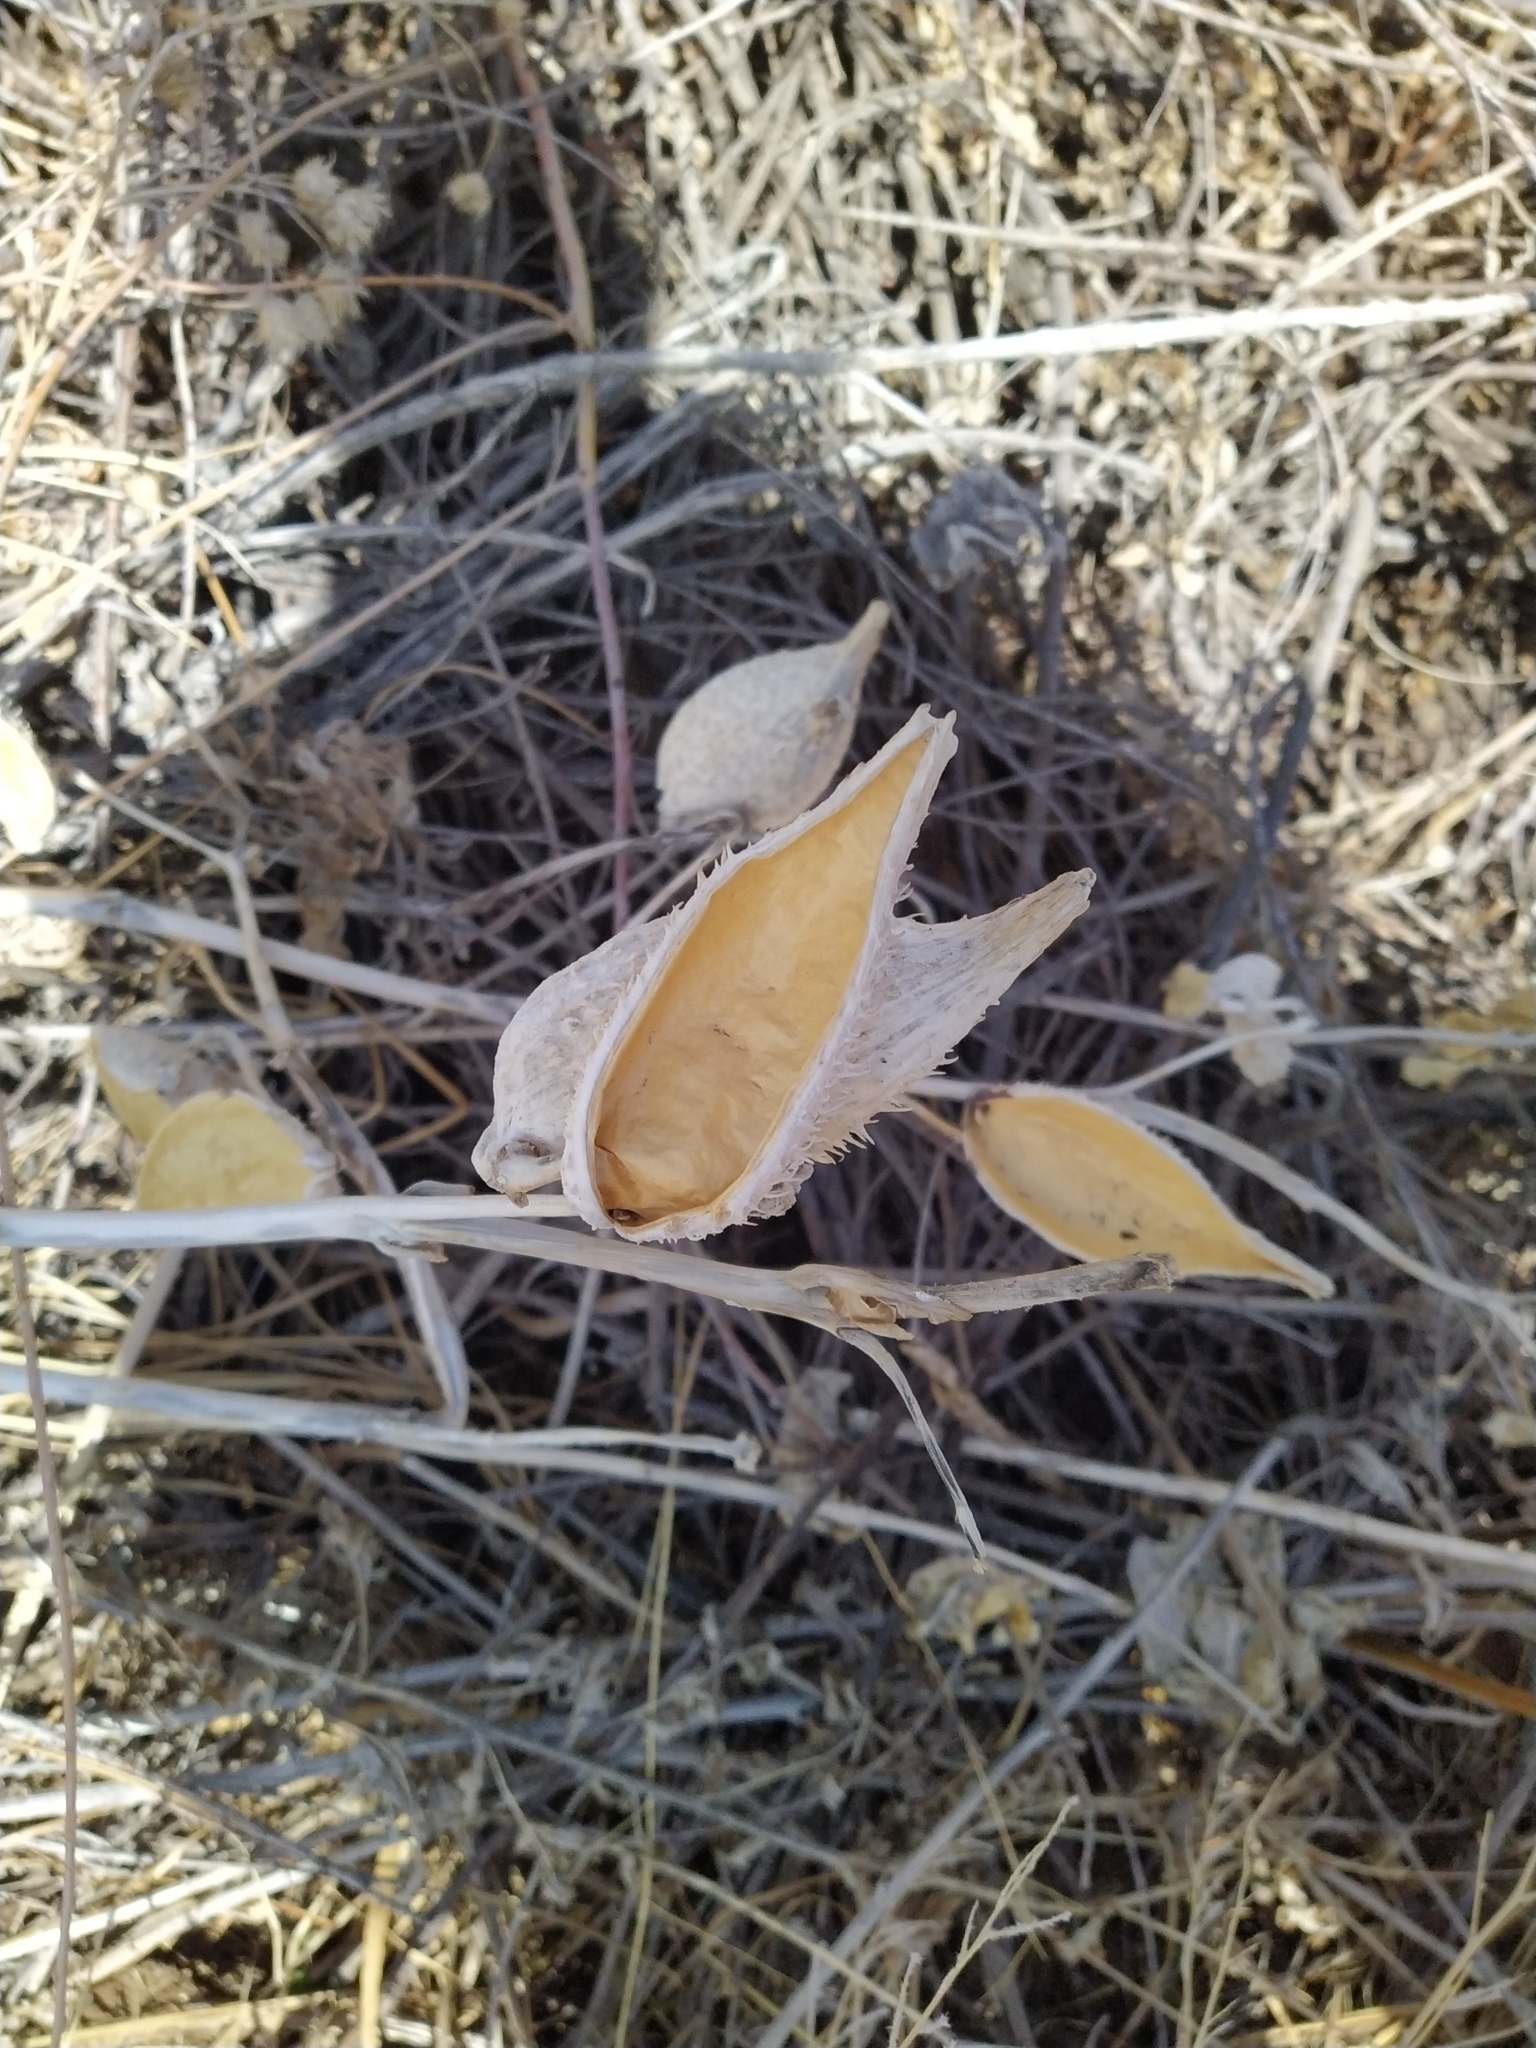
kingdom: Plantae
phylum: Tracheophyta
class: Magnoliopsida
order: Gentianales
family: Apocynaceae
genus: Asclepias
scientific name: Asclepias speciosa
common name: Showy milkweed
